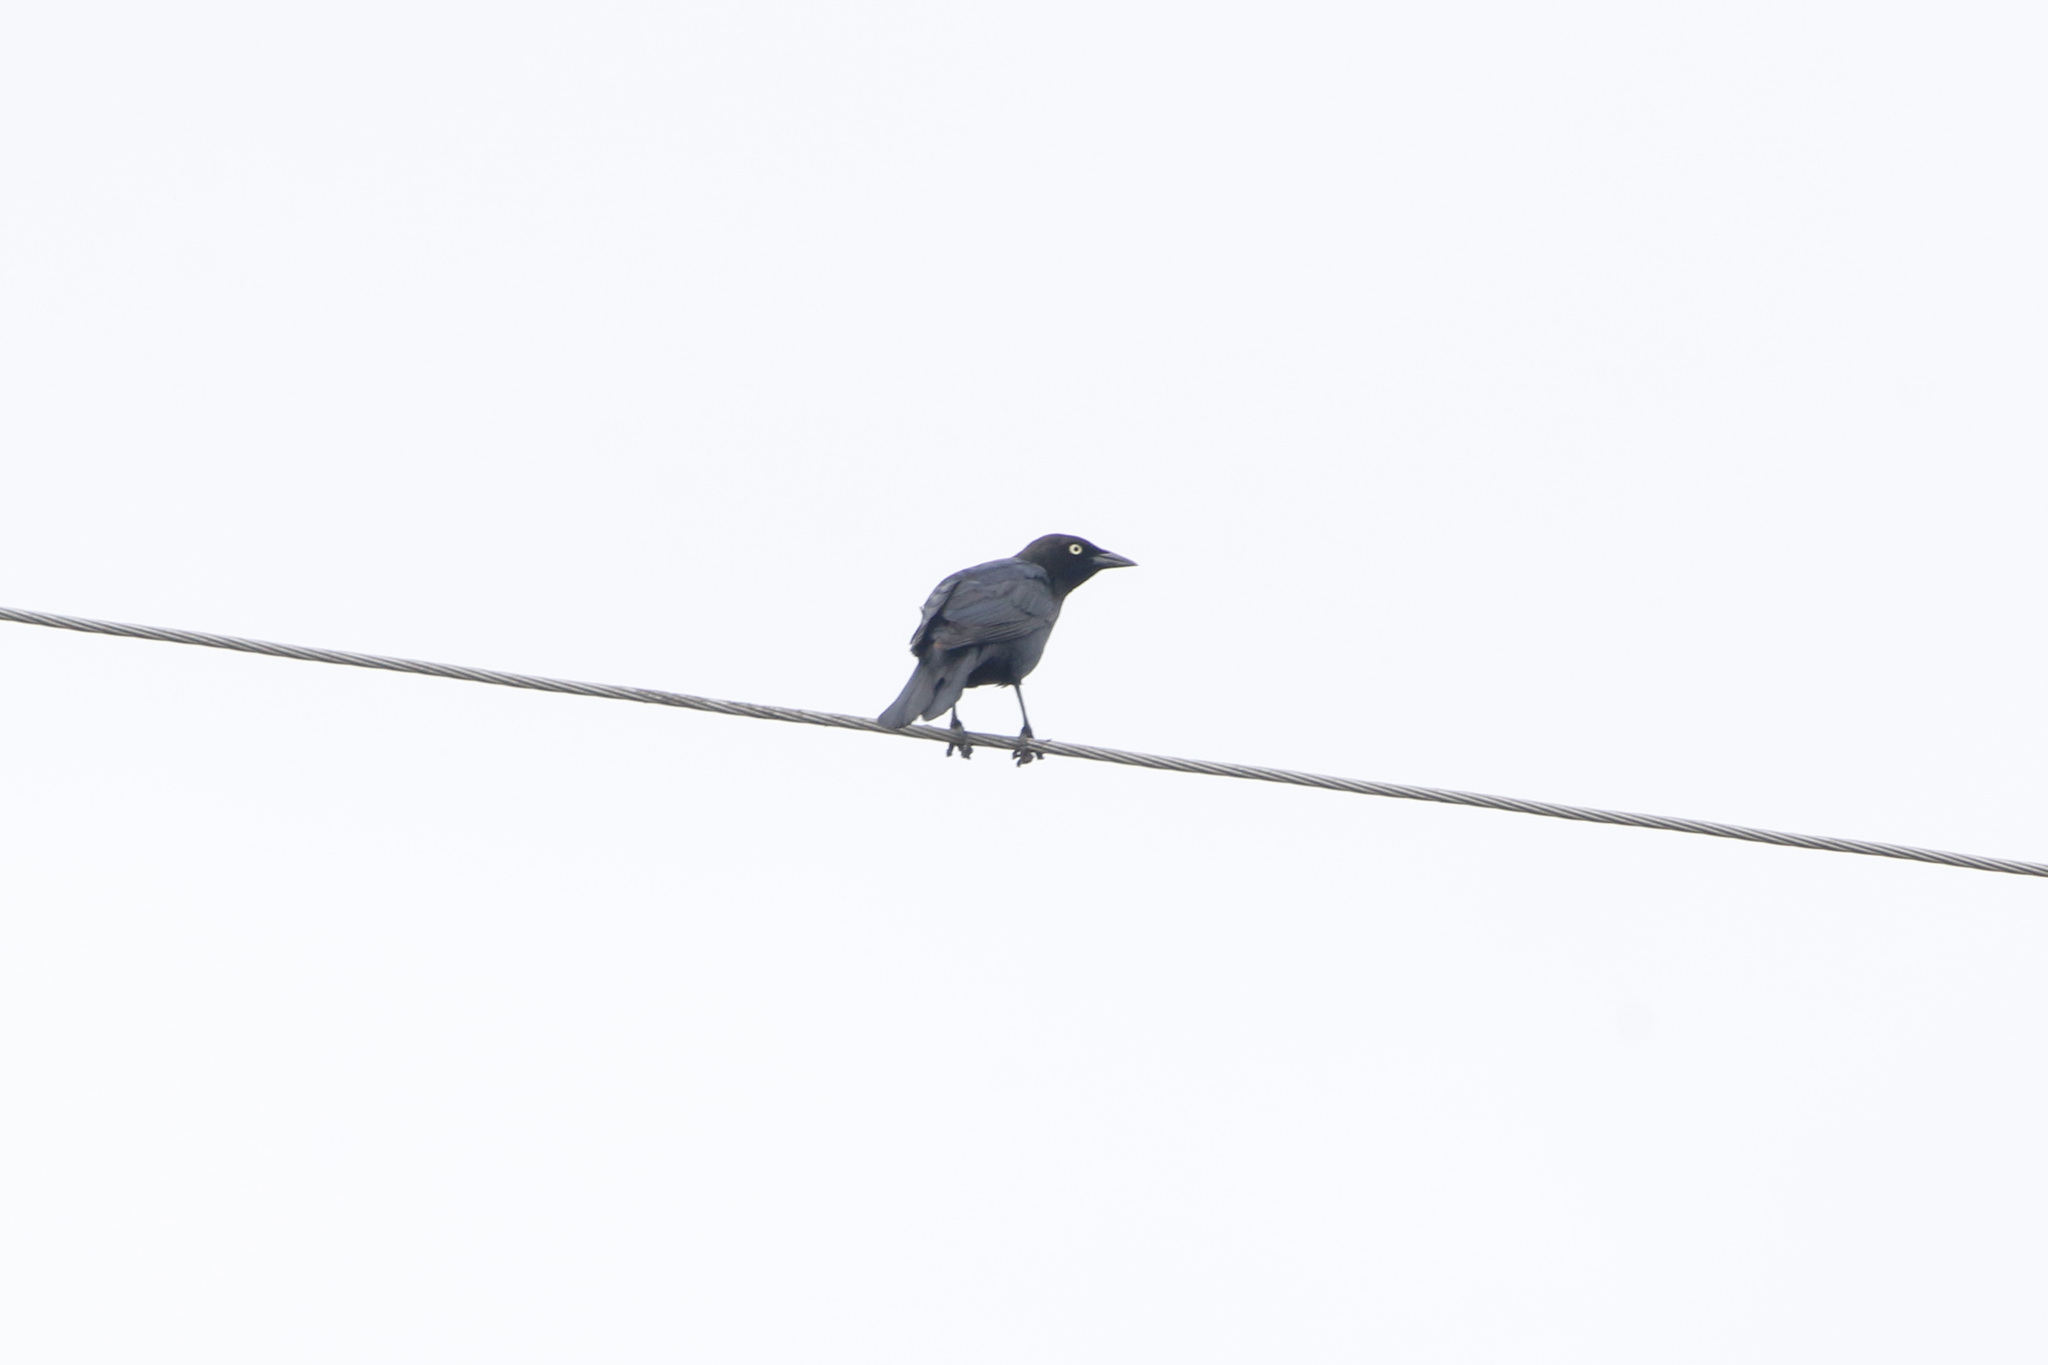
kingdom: Animalia
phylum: Chordata
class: Aves
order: Passeriformes
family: Icteridae
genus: Euphagus
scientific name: Euphagus cyanocephalus
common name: Brewer's blackbird
